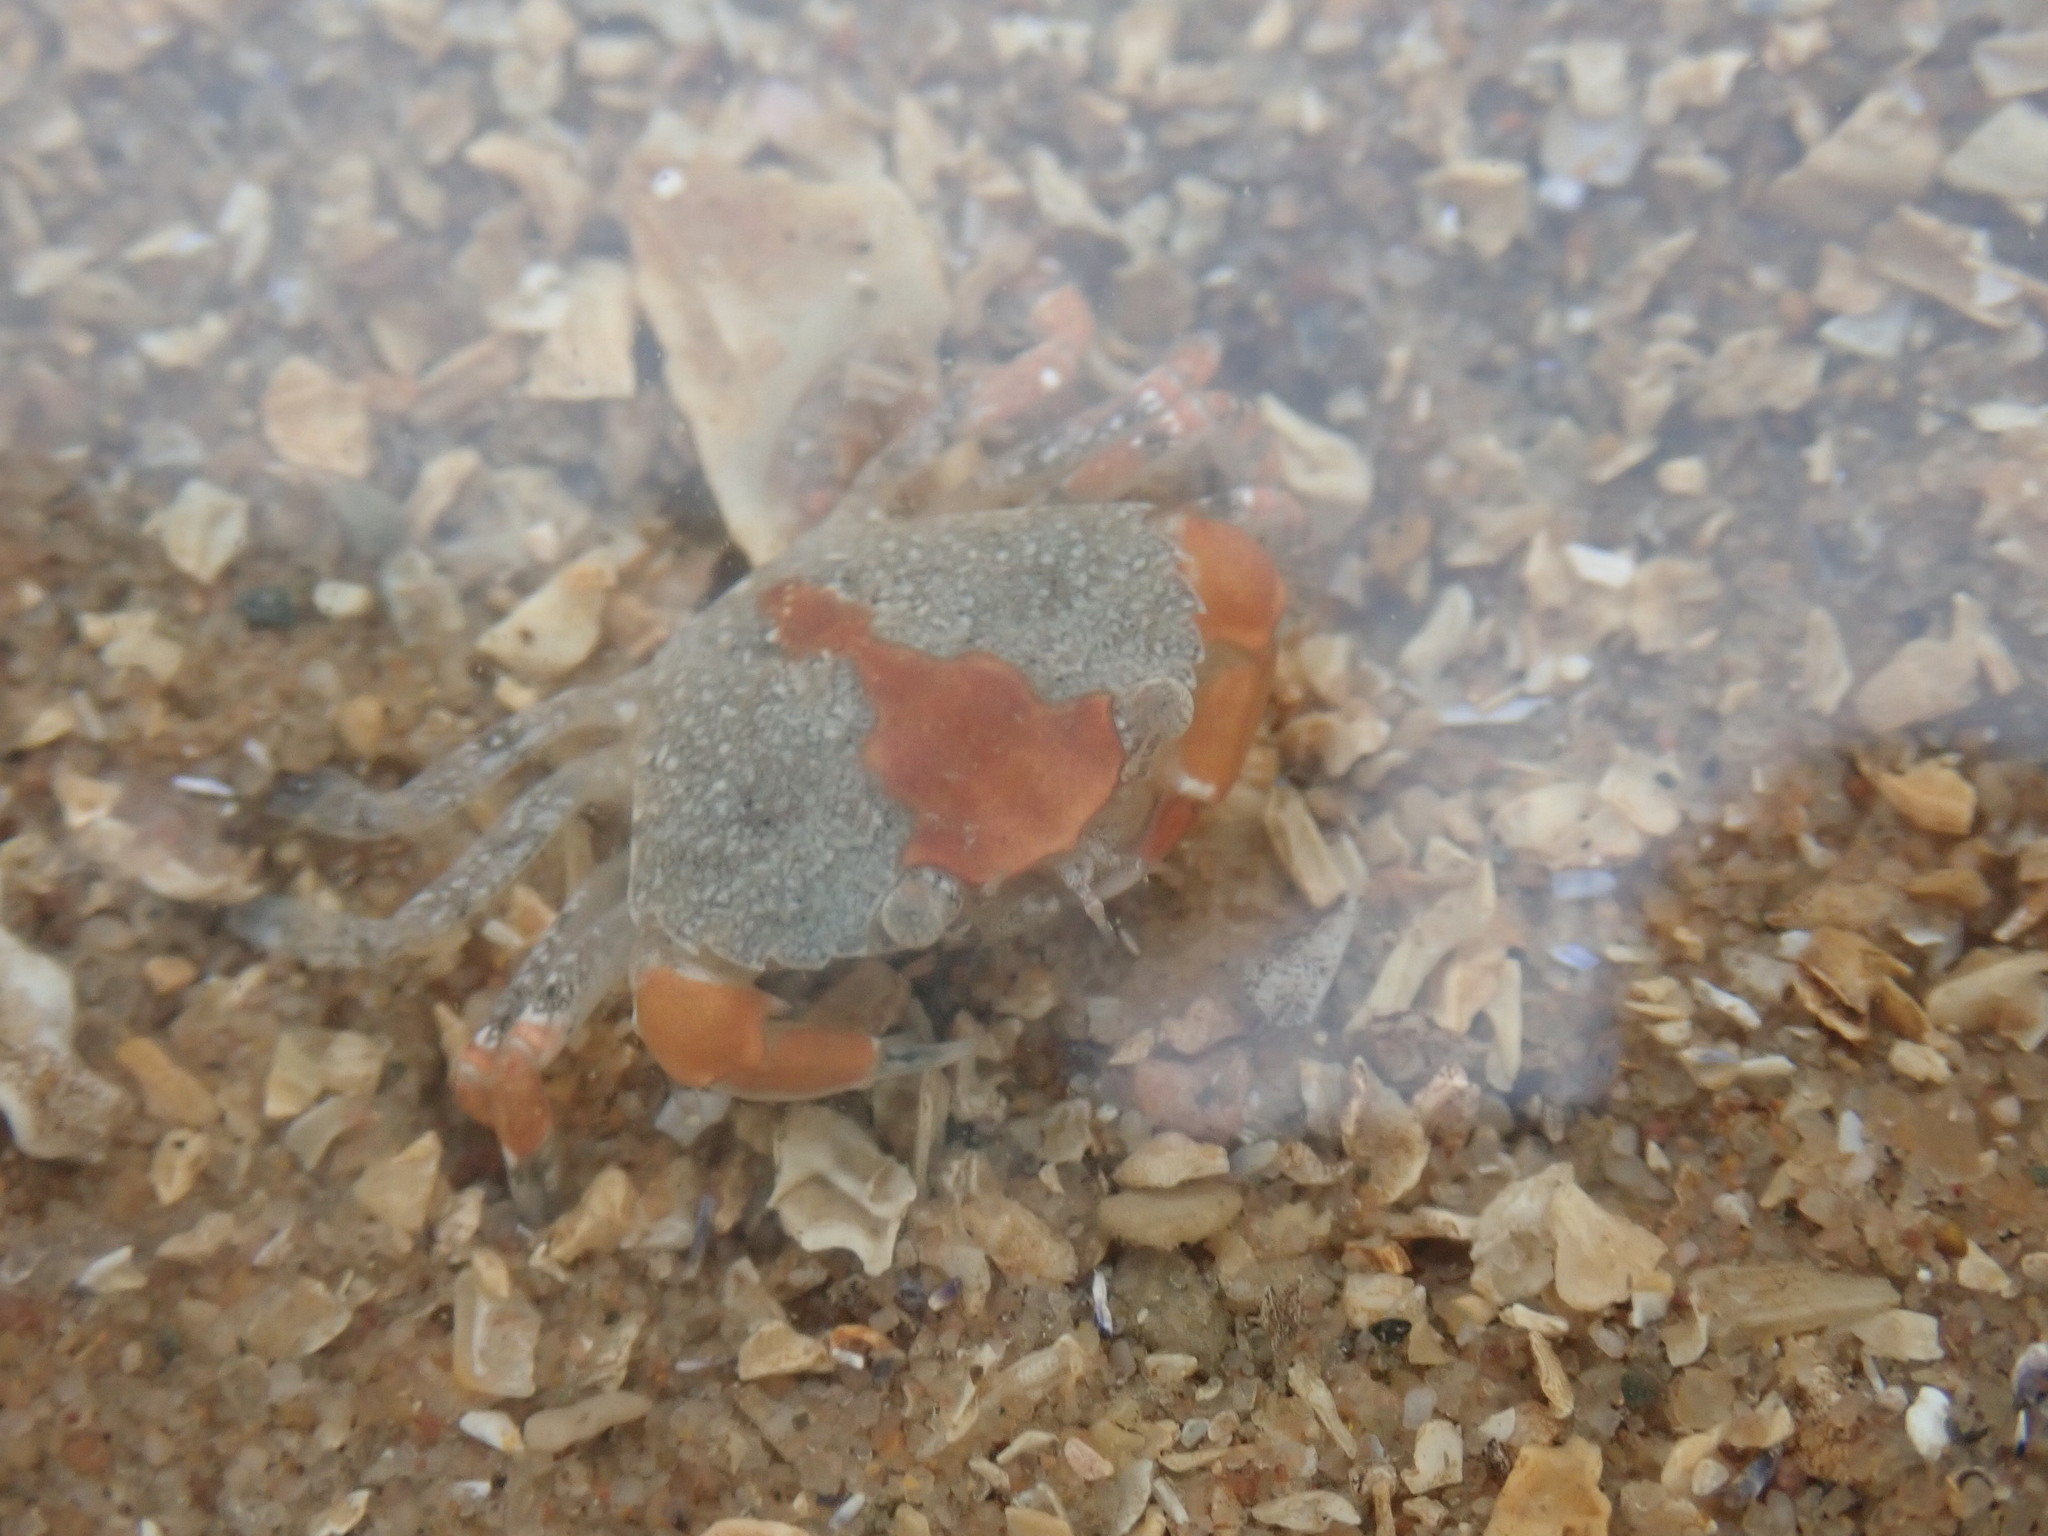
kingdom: Animalia
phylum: Arthropoda
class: Malacostraca
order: Decapoda
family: Carcinidae
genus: Carcinus
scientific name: Carcinus maenas
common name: European green crab
